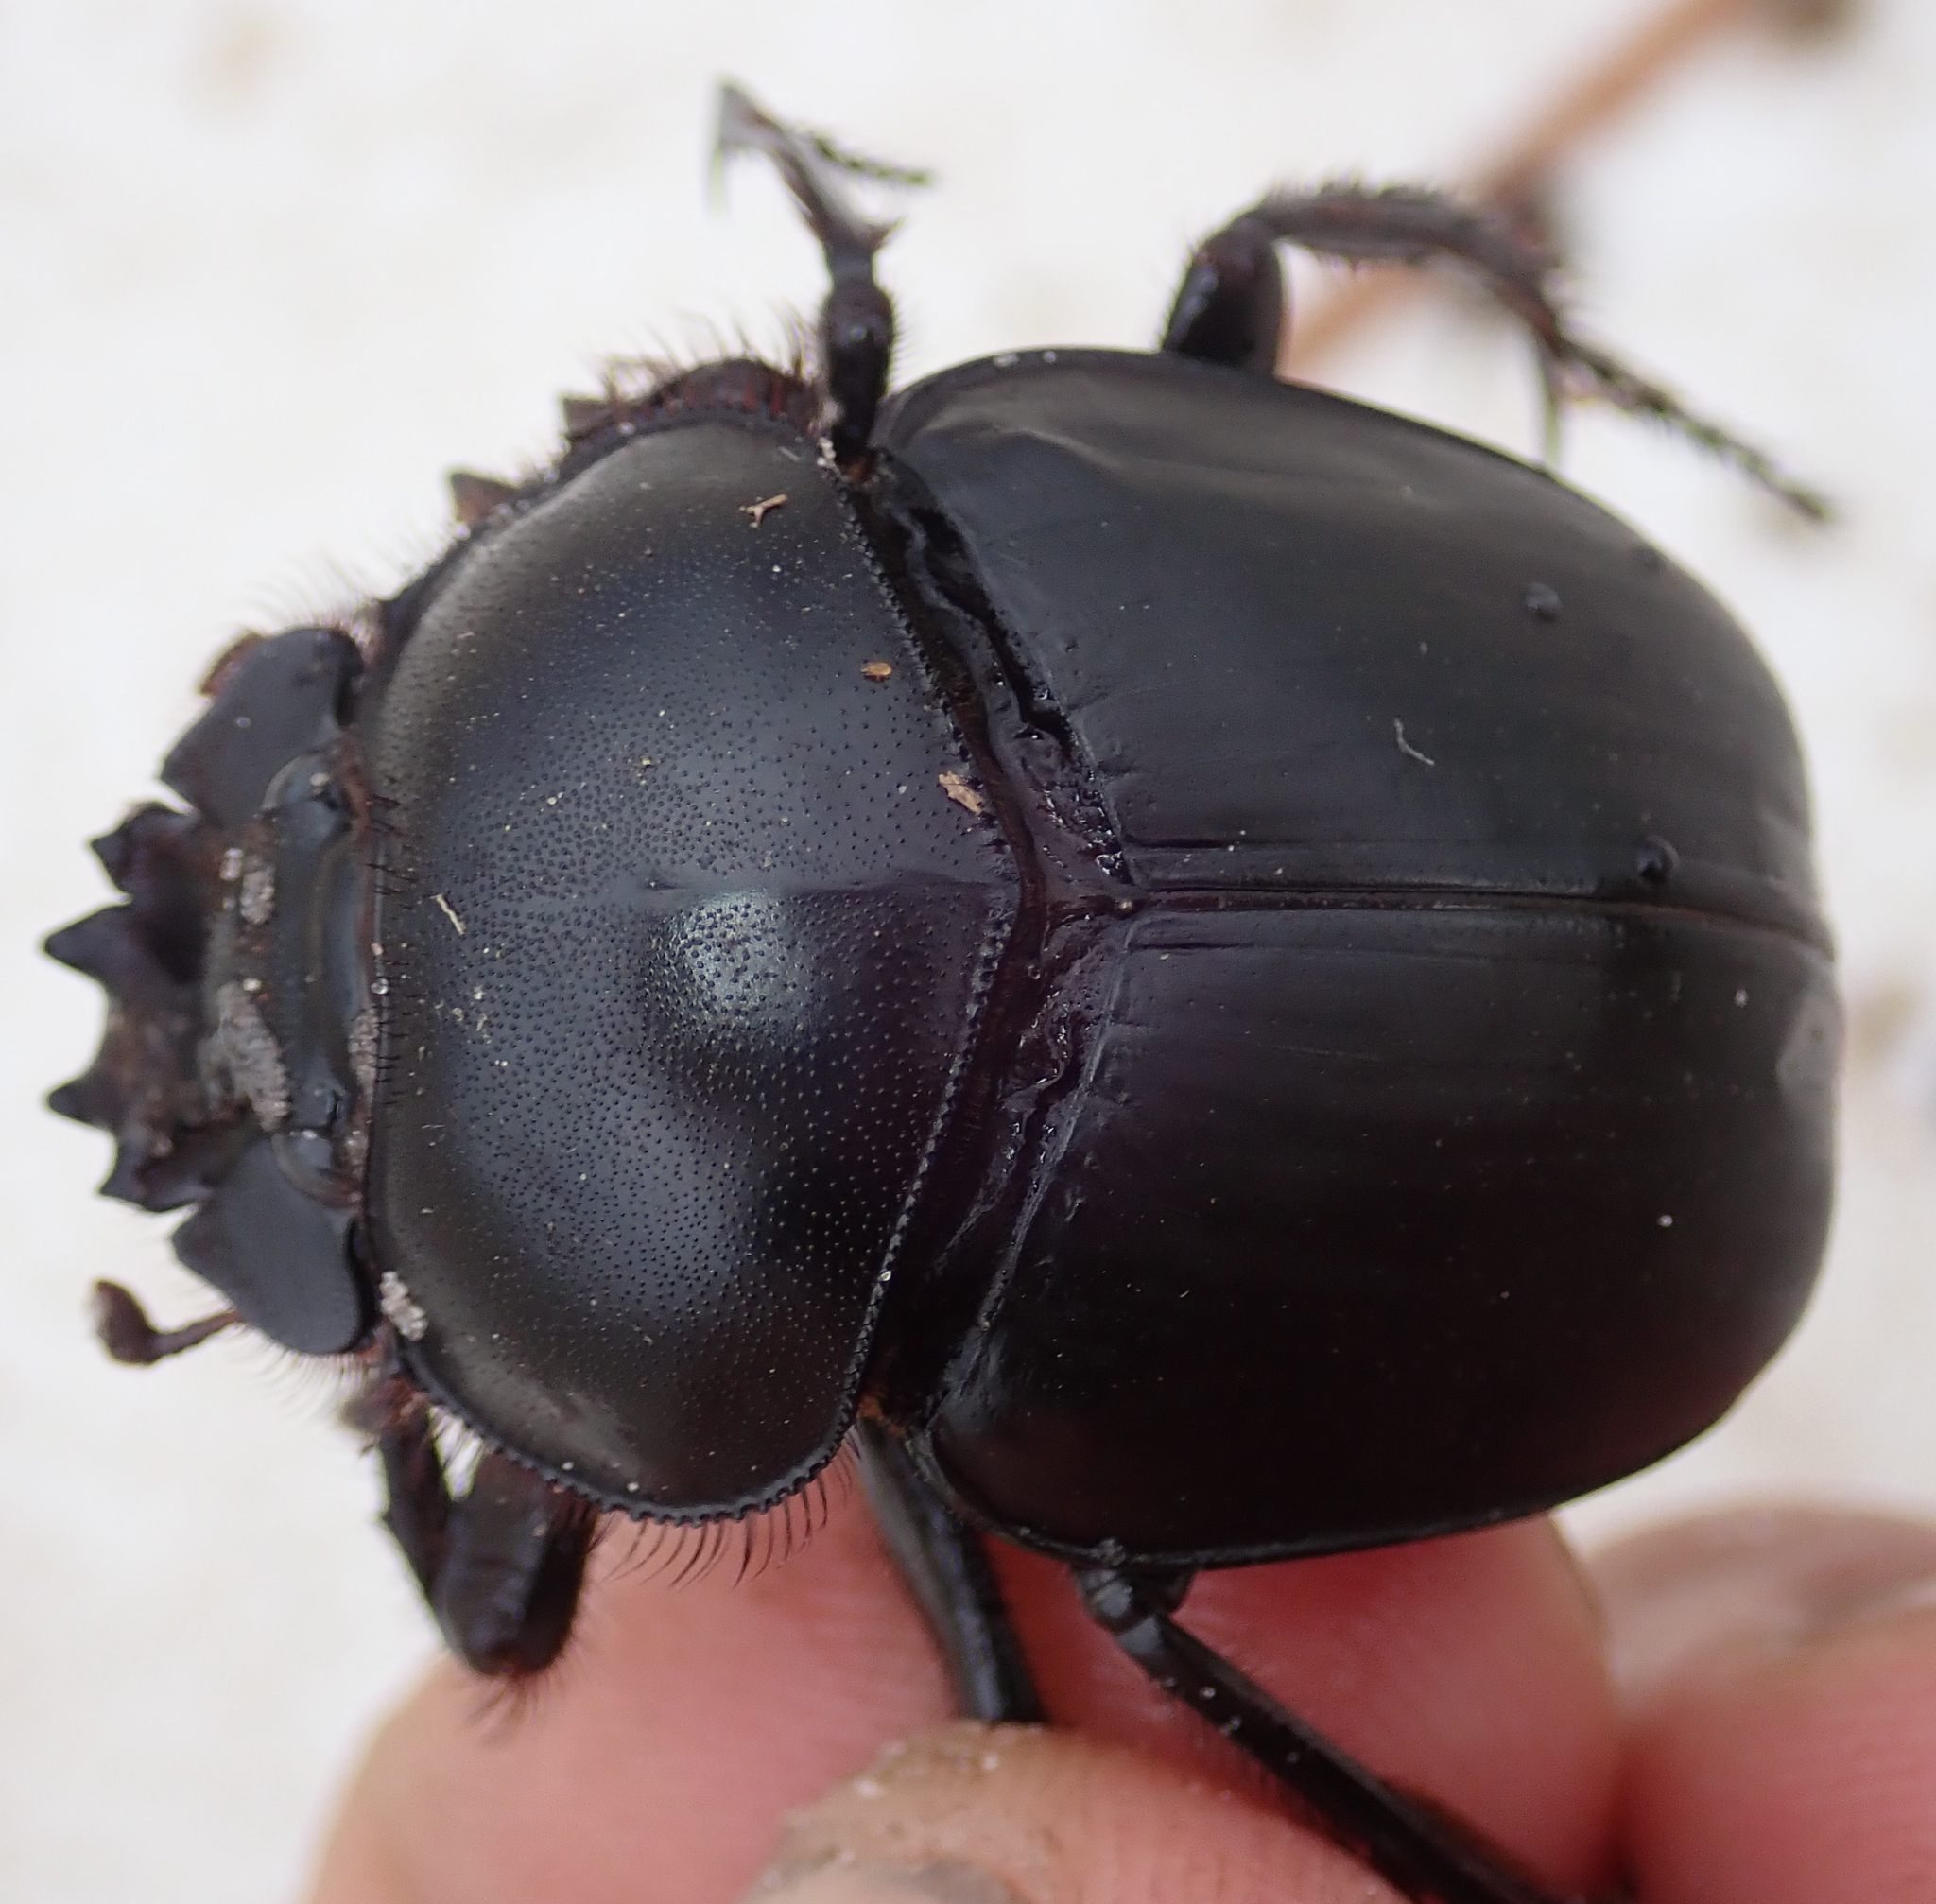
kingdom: Animalia
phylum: Arthropoda
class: Insecta
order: Coleoptera
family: Scarabaeidae
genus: Scarabaeus
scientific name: Scarabaeus goryi
